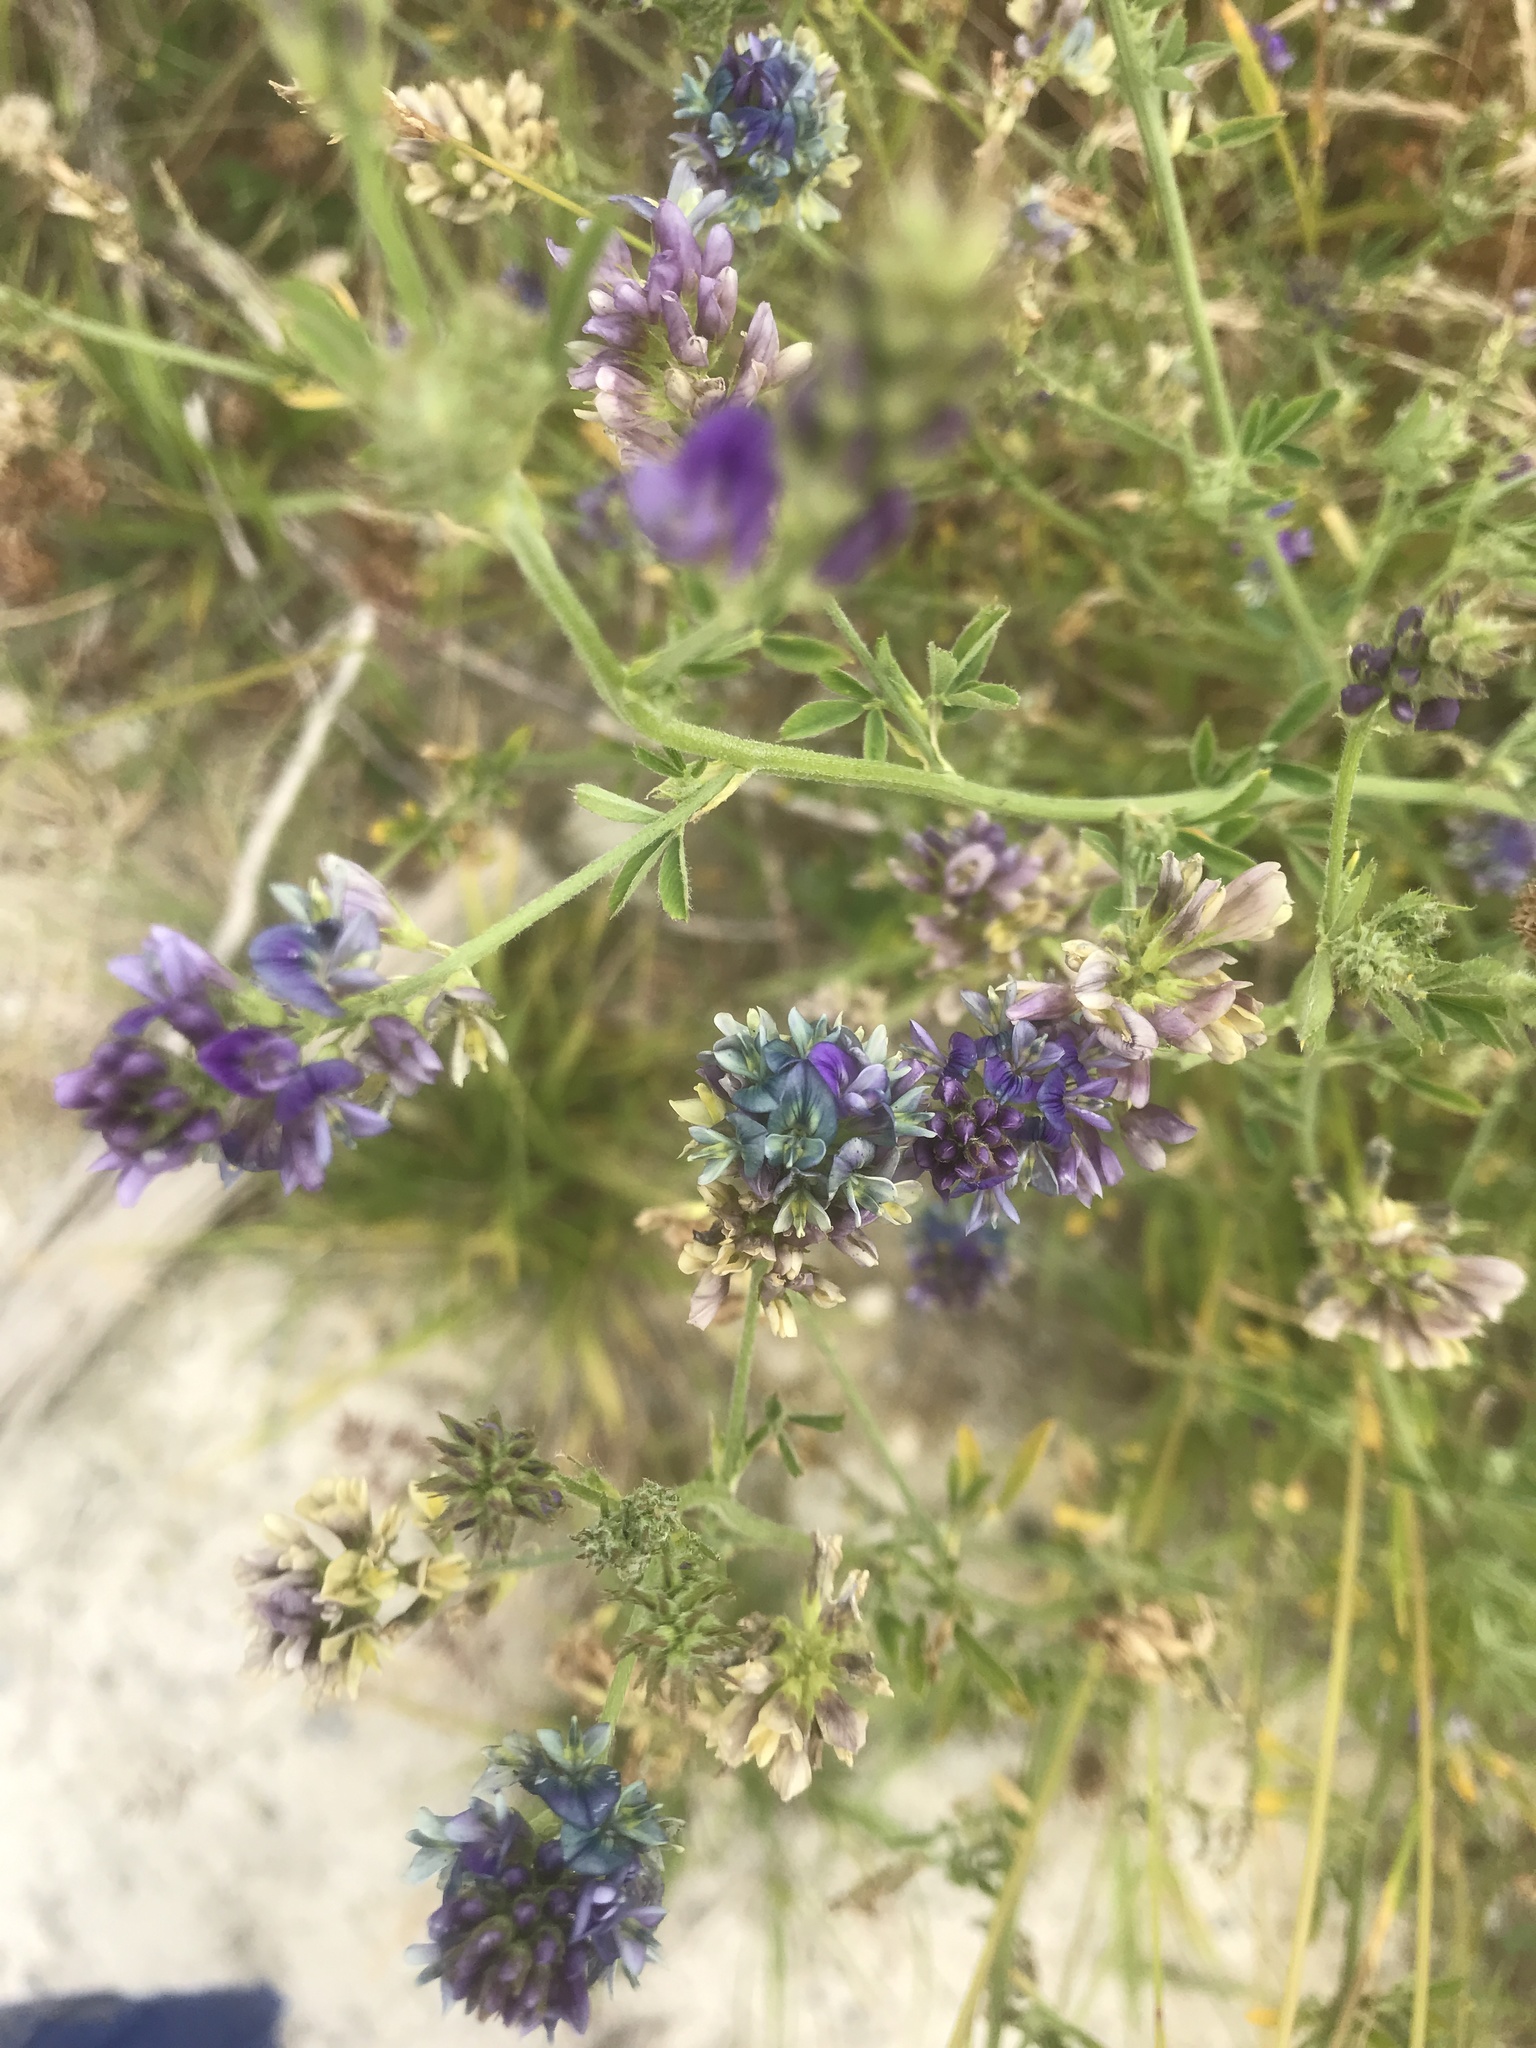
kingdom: Plantae
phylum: Tracheophyta
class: Magnoliopsida
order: Fabales
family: Fabaceae
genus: Medicago
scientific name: Medicago sativa
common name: Alfalfa
